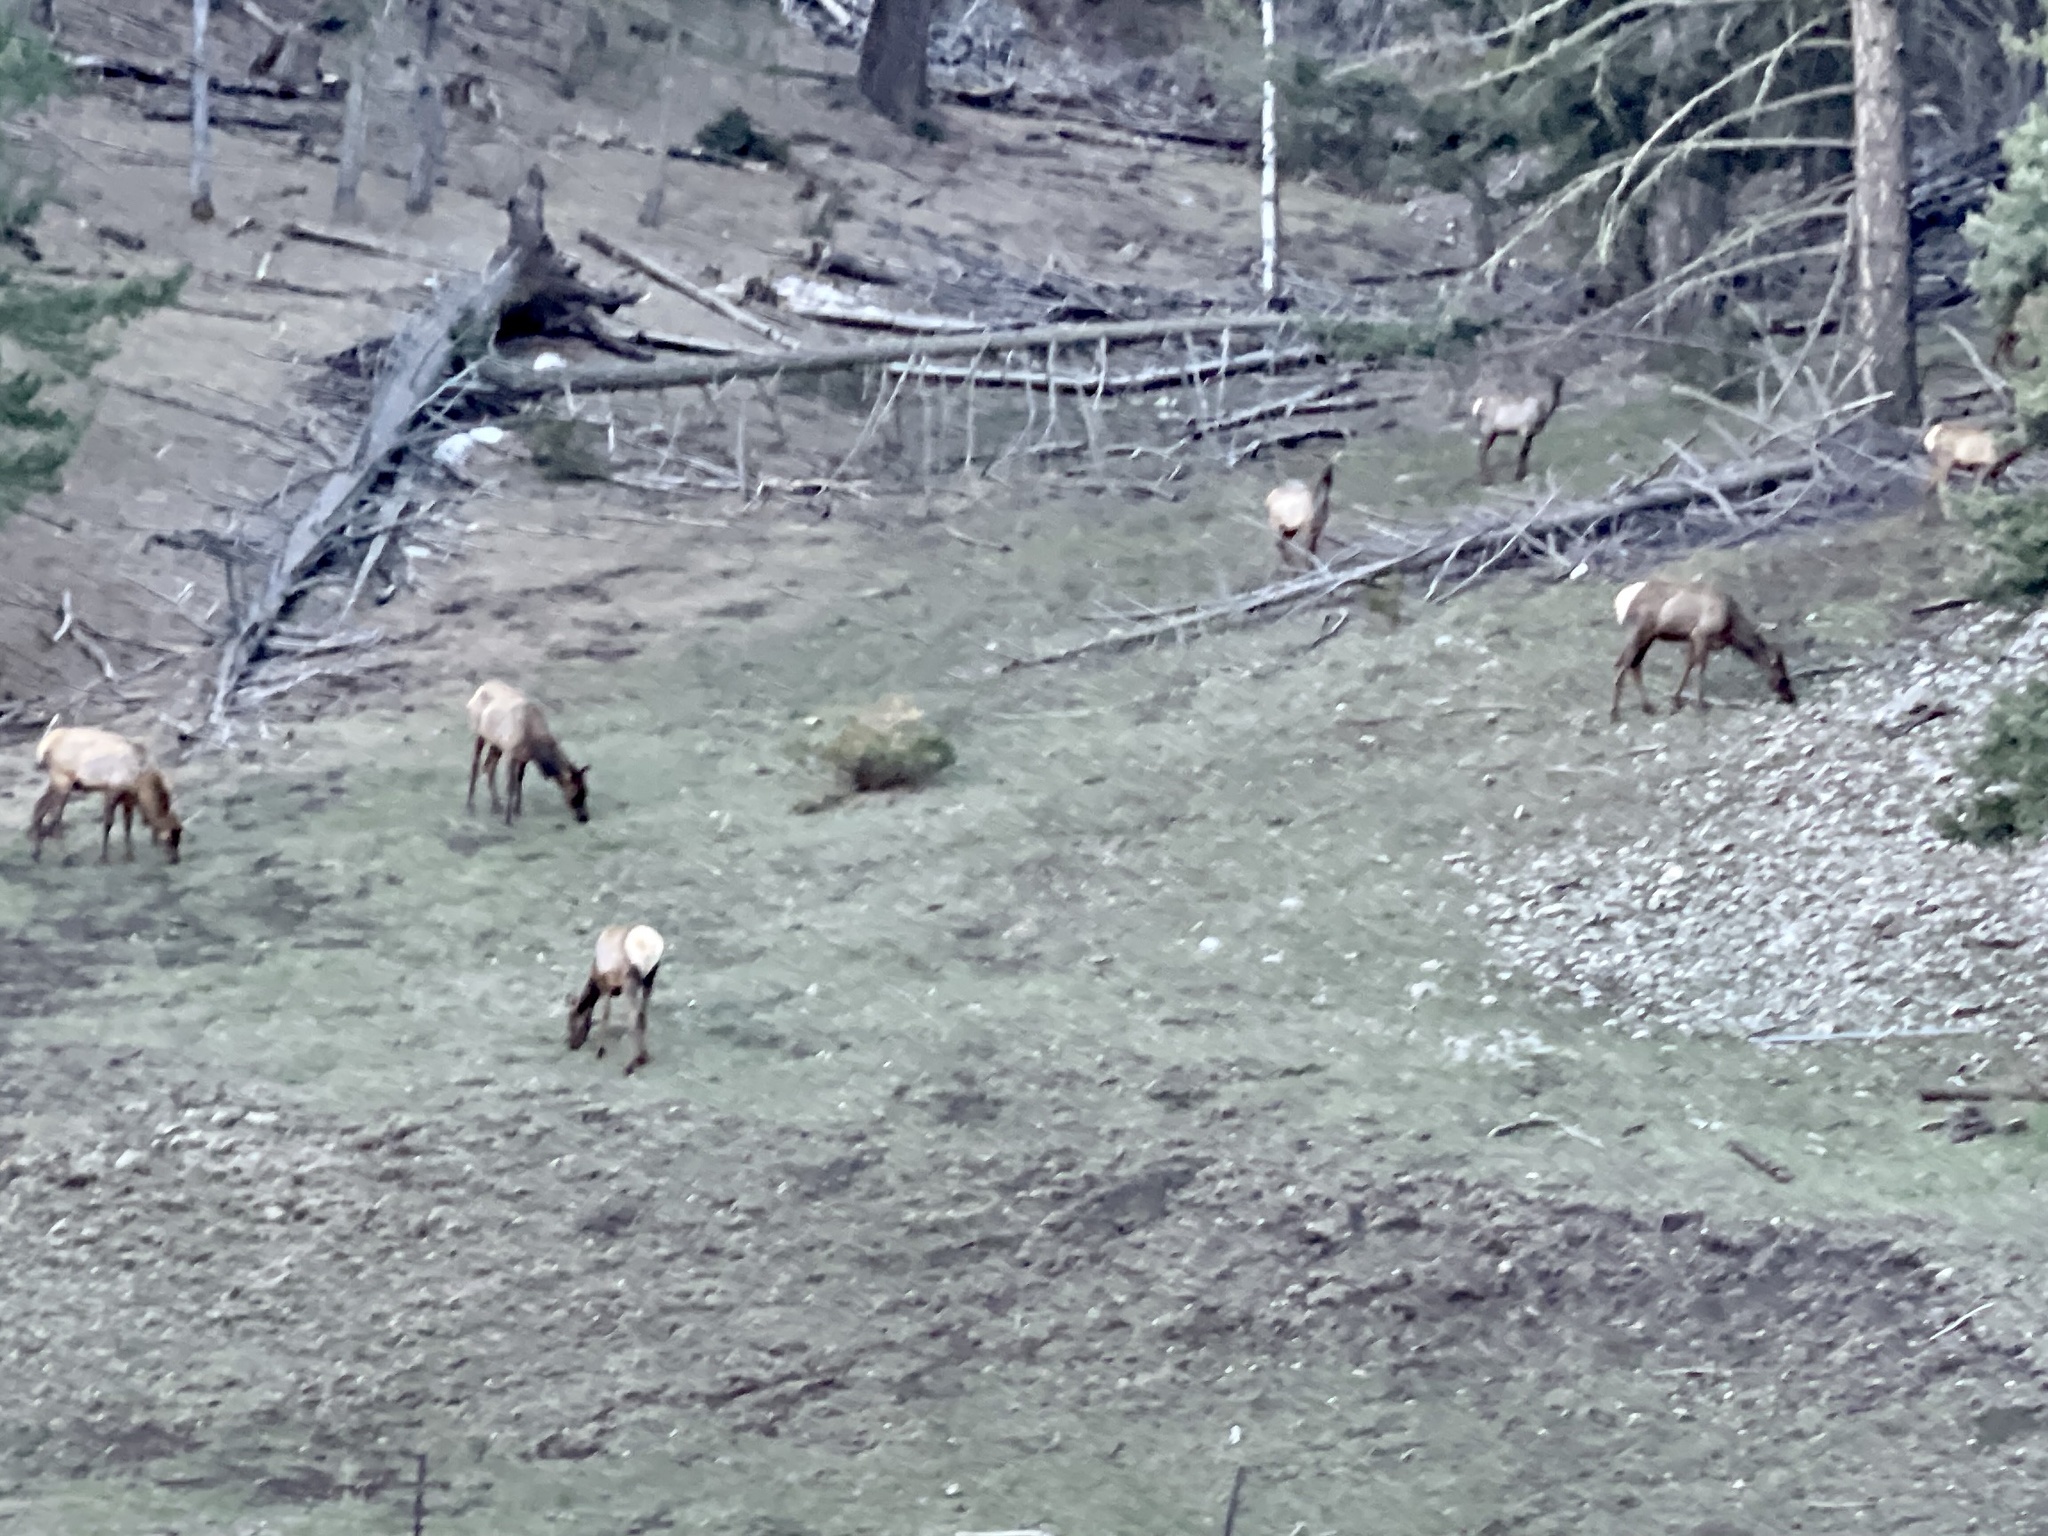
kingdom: Animalia
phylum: Chordata
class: Mammalia
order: Artiodactyla
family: Cervidae
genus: Cervus
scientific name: Cervus elaphus
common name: Red deer
